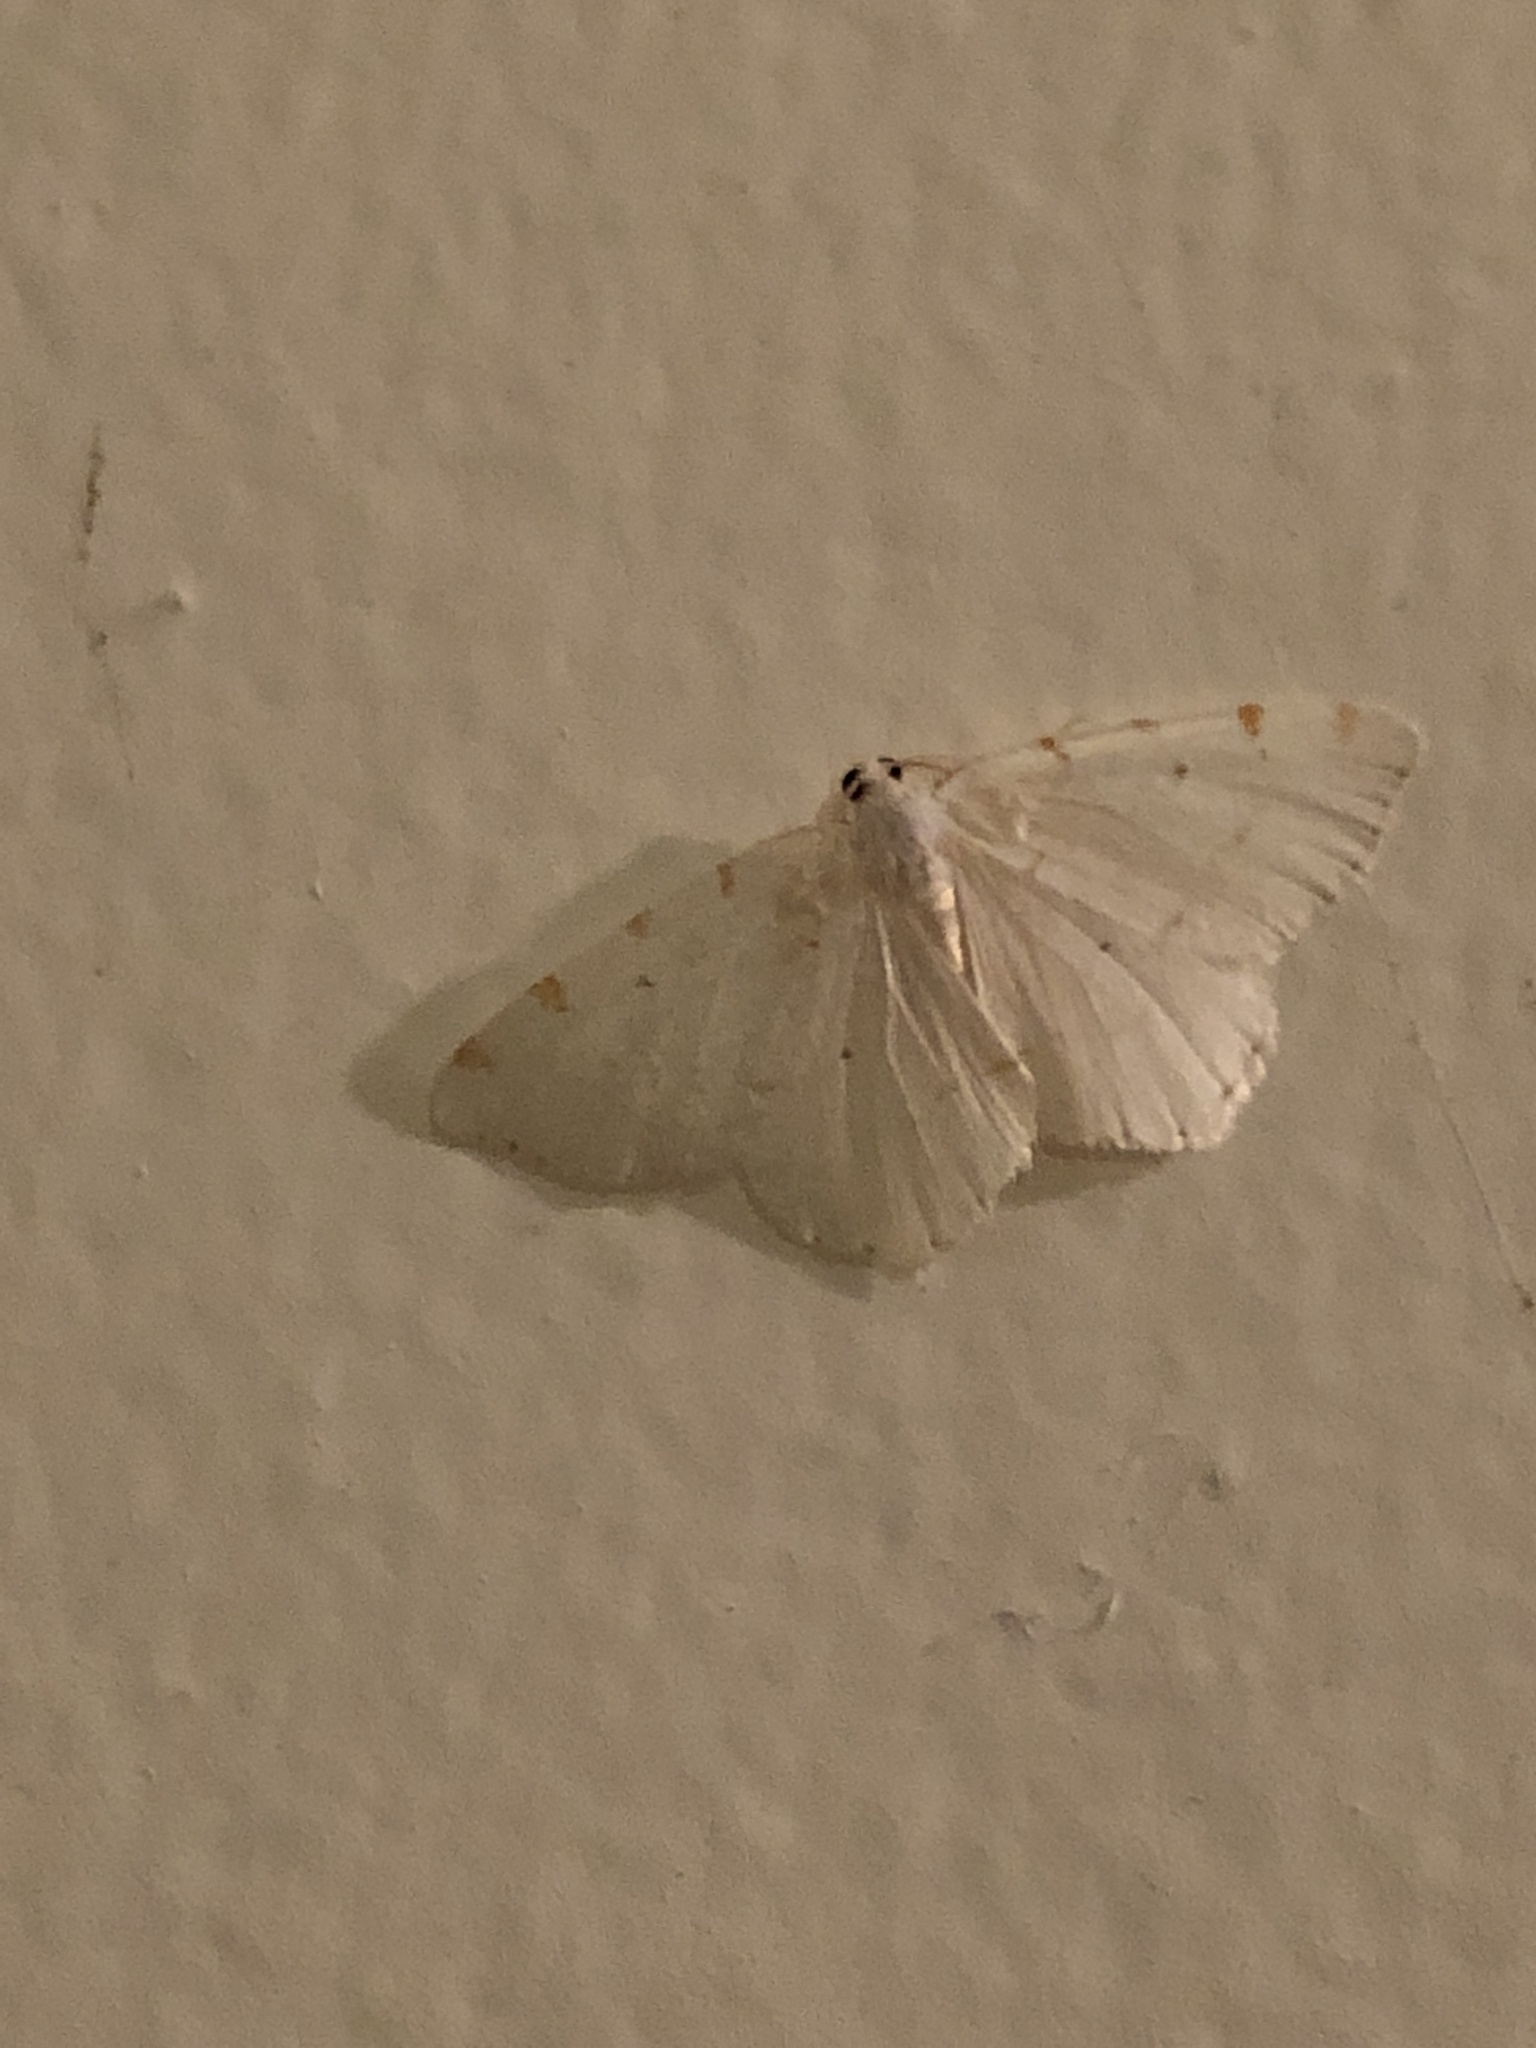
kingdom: Animalia
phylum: Arthropoda
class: Insecta
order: Lepidoptera
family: Geometridae
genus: Macaria
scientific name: Macaria pustularia
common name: Lesser maple spanworm moth
